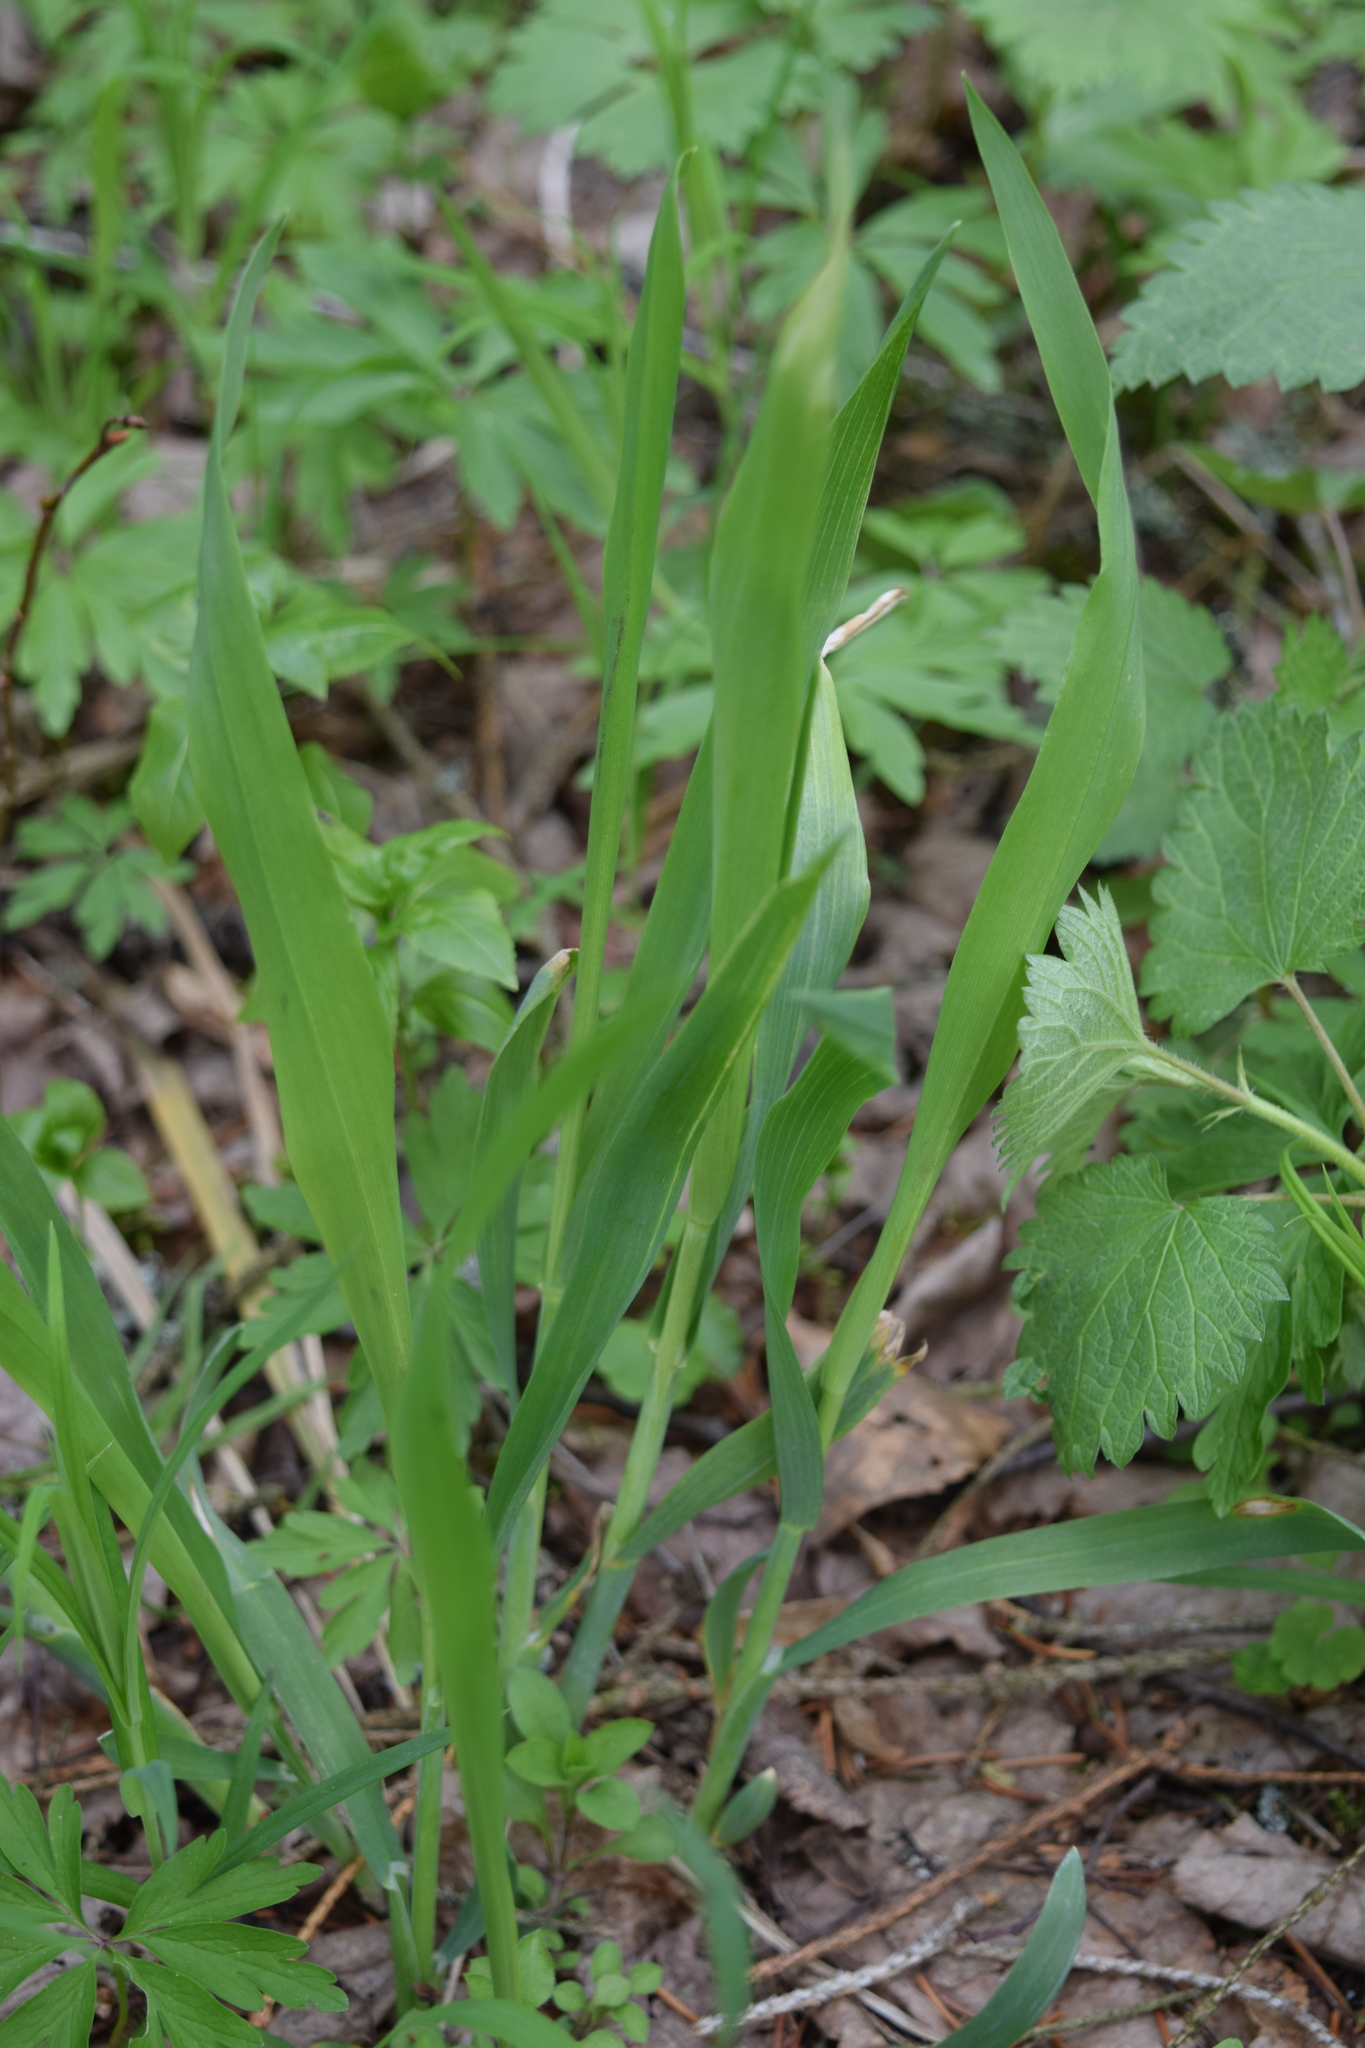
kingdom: Plantae
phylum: Tracheophyta
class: Liliopsida
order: Poales
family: Poaceae
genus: Milium
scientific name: Milium effusum
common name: Wood millet
